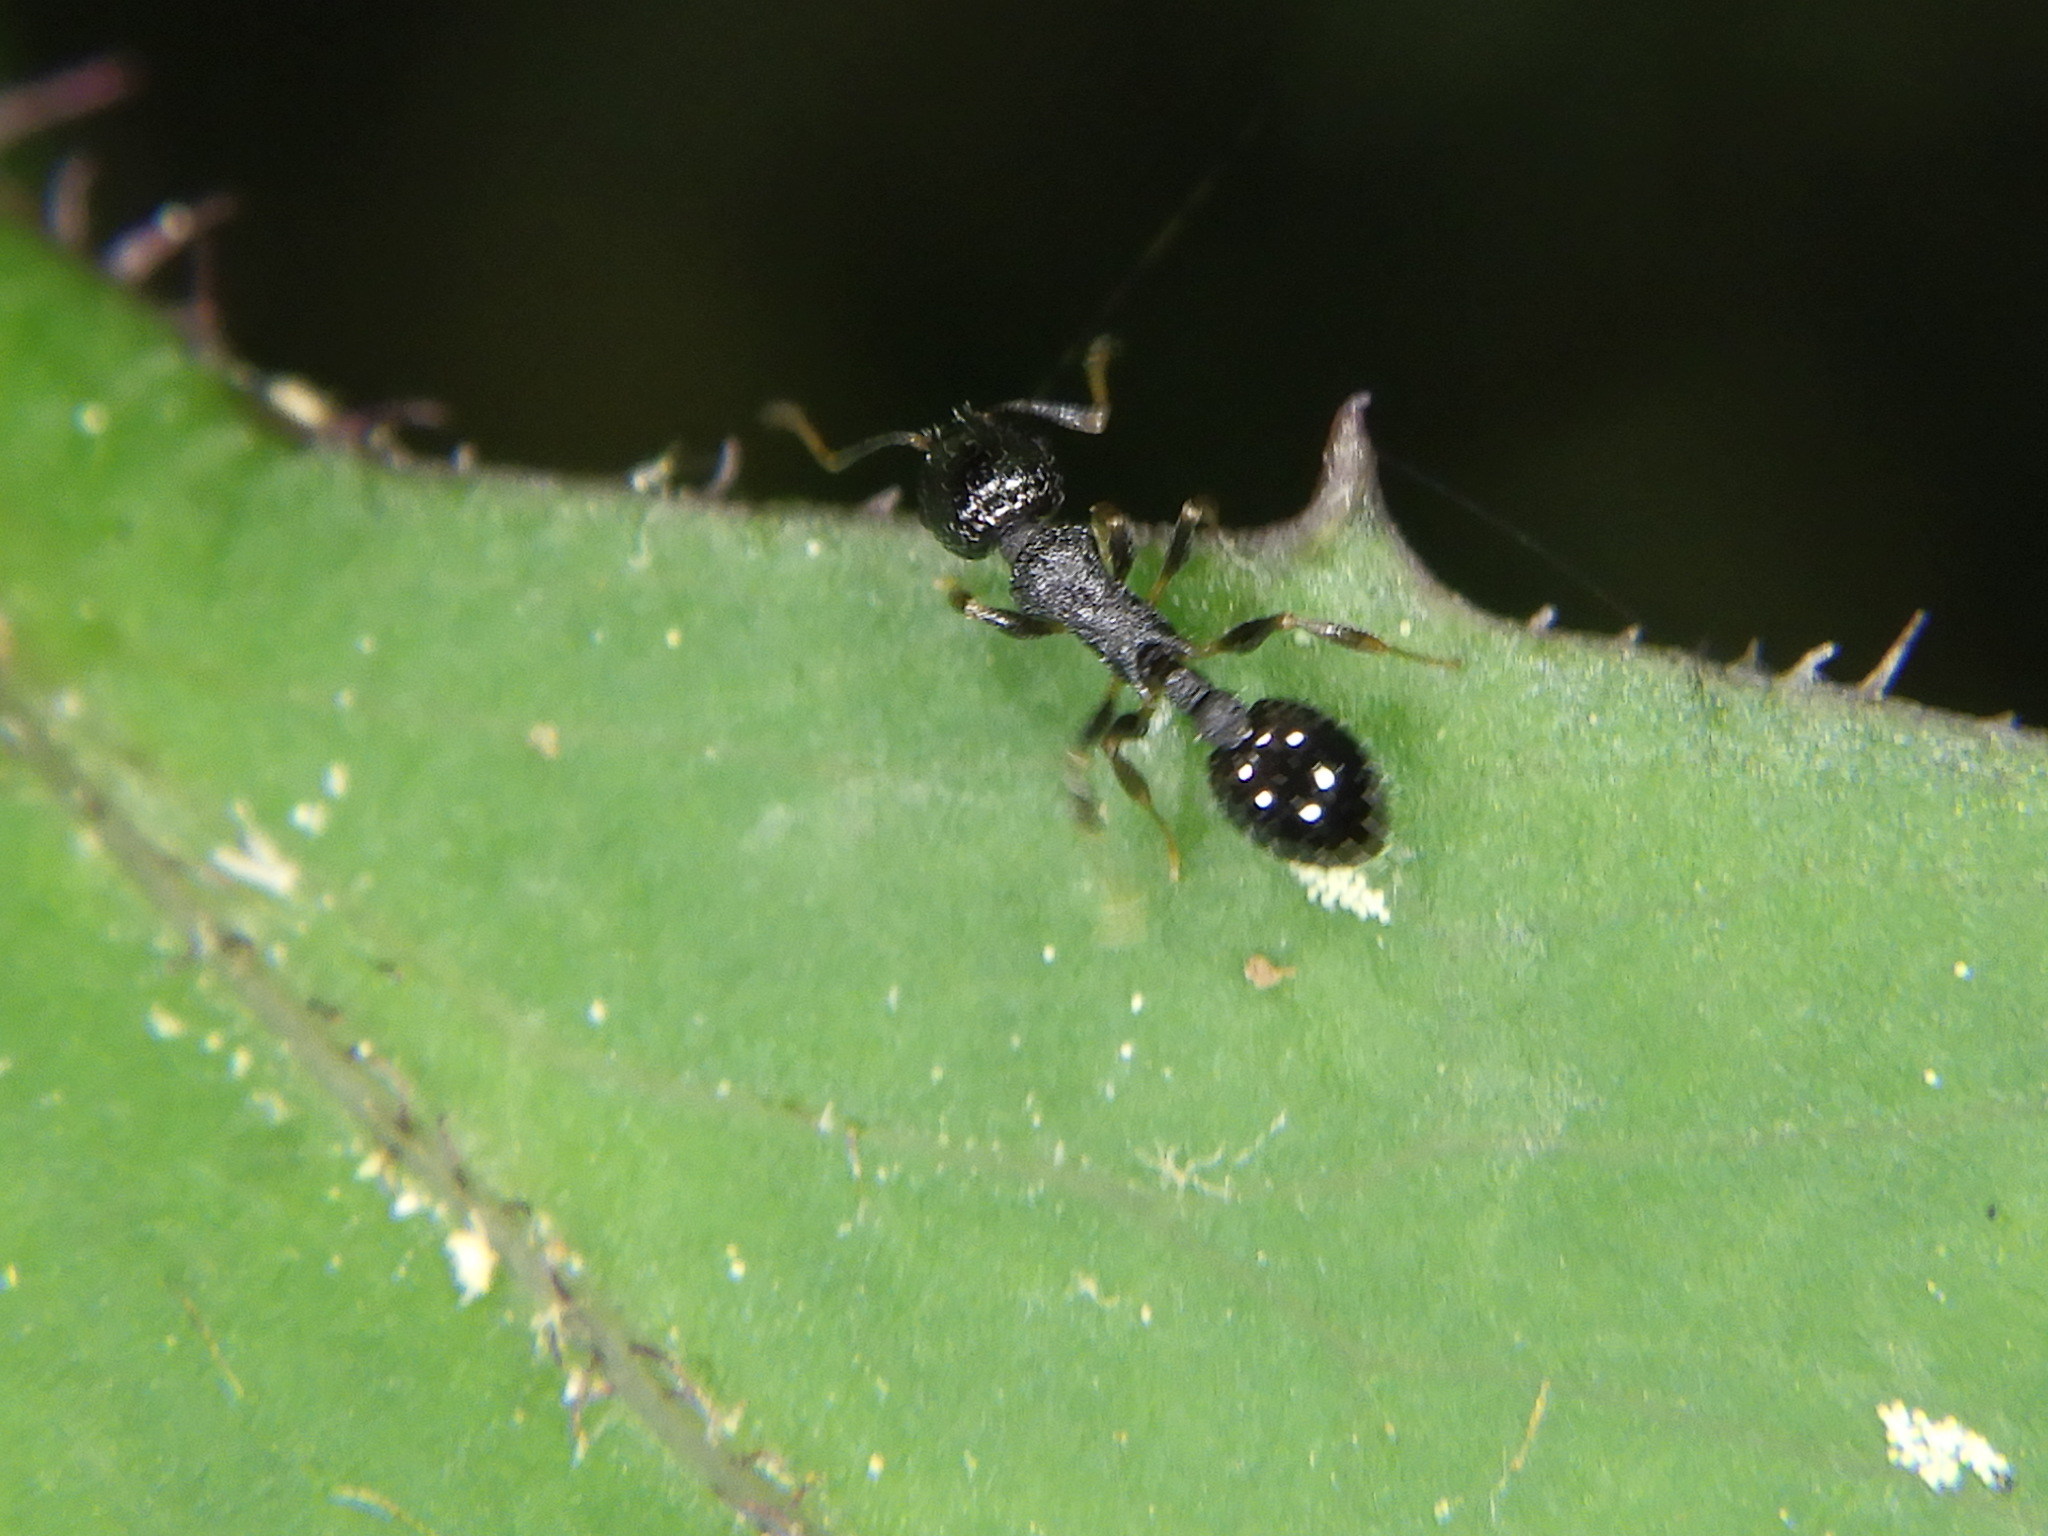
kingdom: Animalia
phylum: Arthropoda
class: Insecta
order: Hymenoptera
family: Formicidae
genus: Temnothorax
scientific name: Temnothorax longispinosus
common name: Long-spined acorn ant
